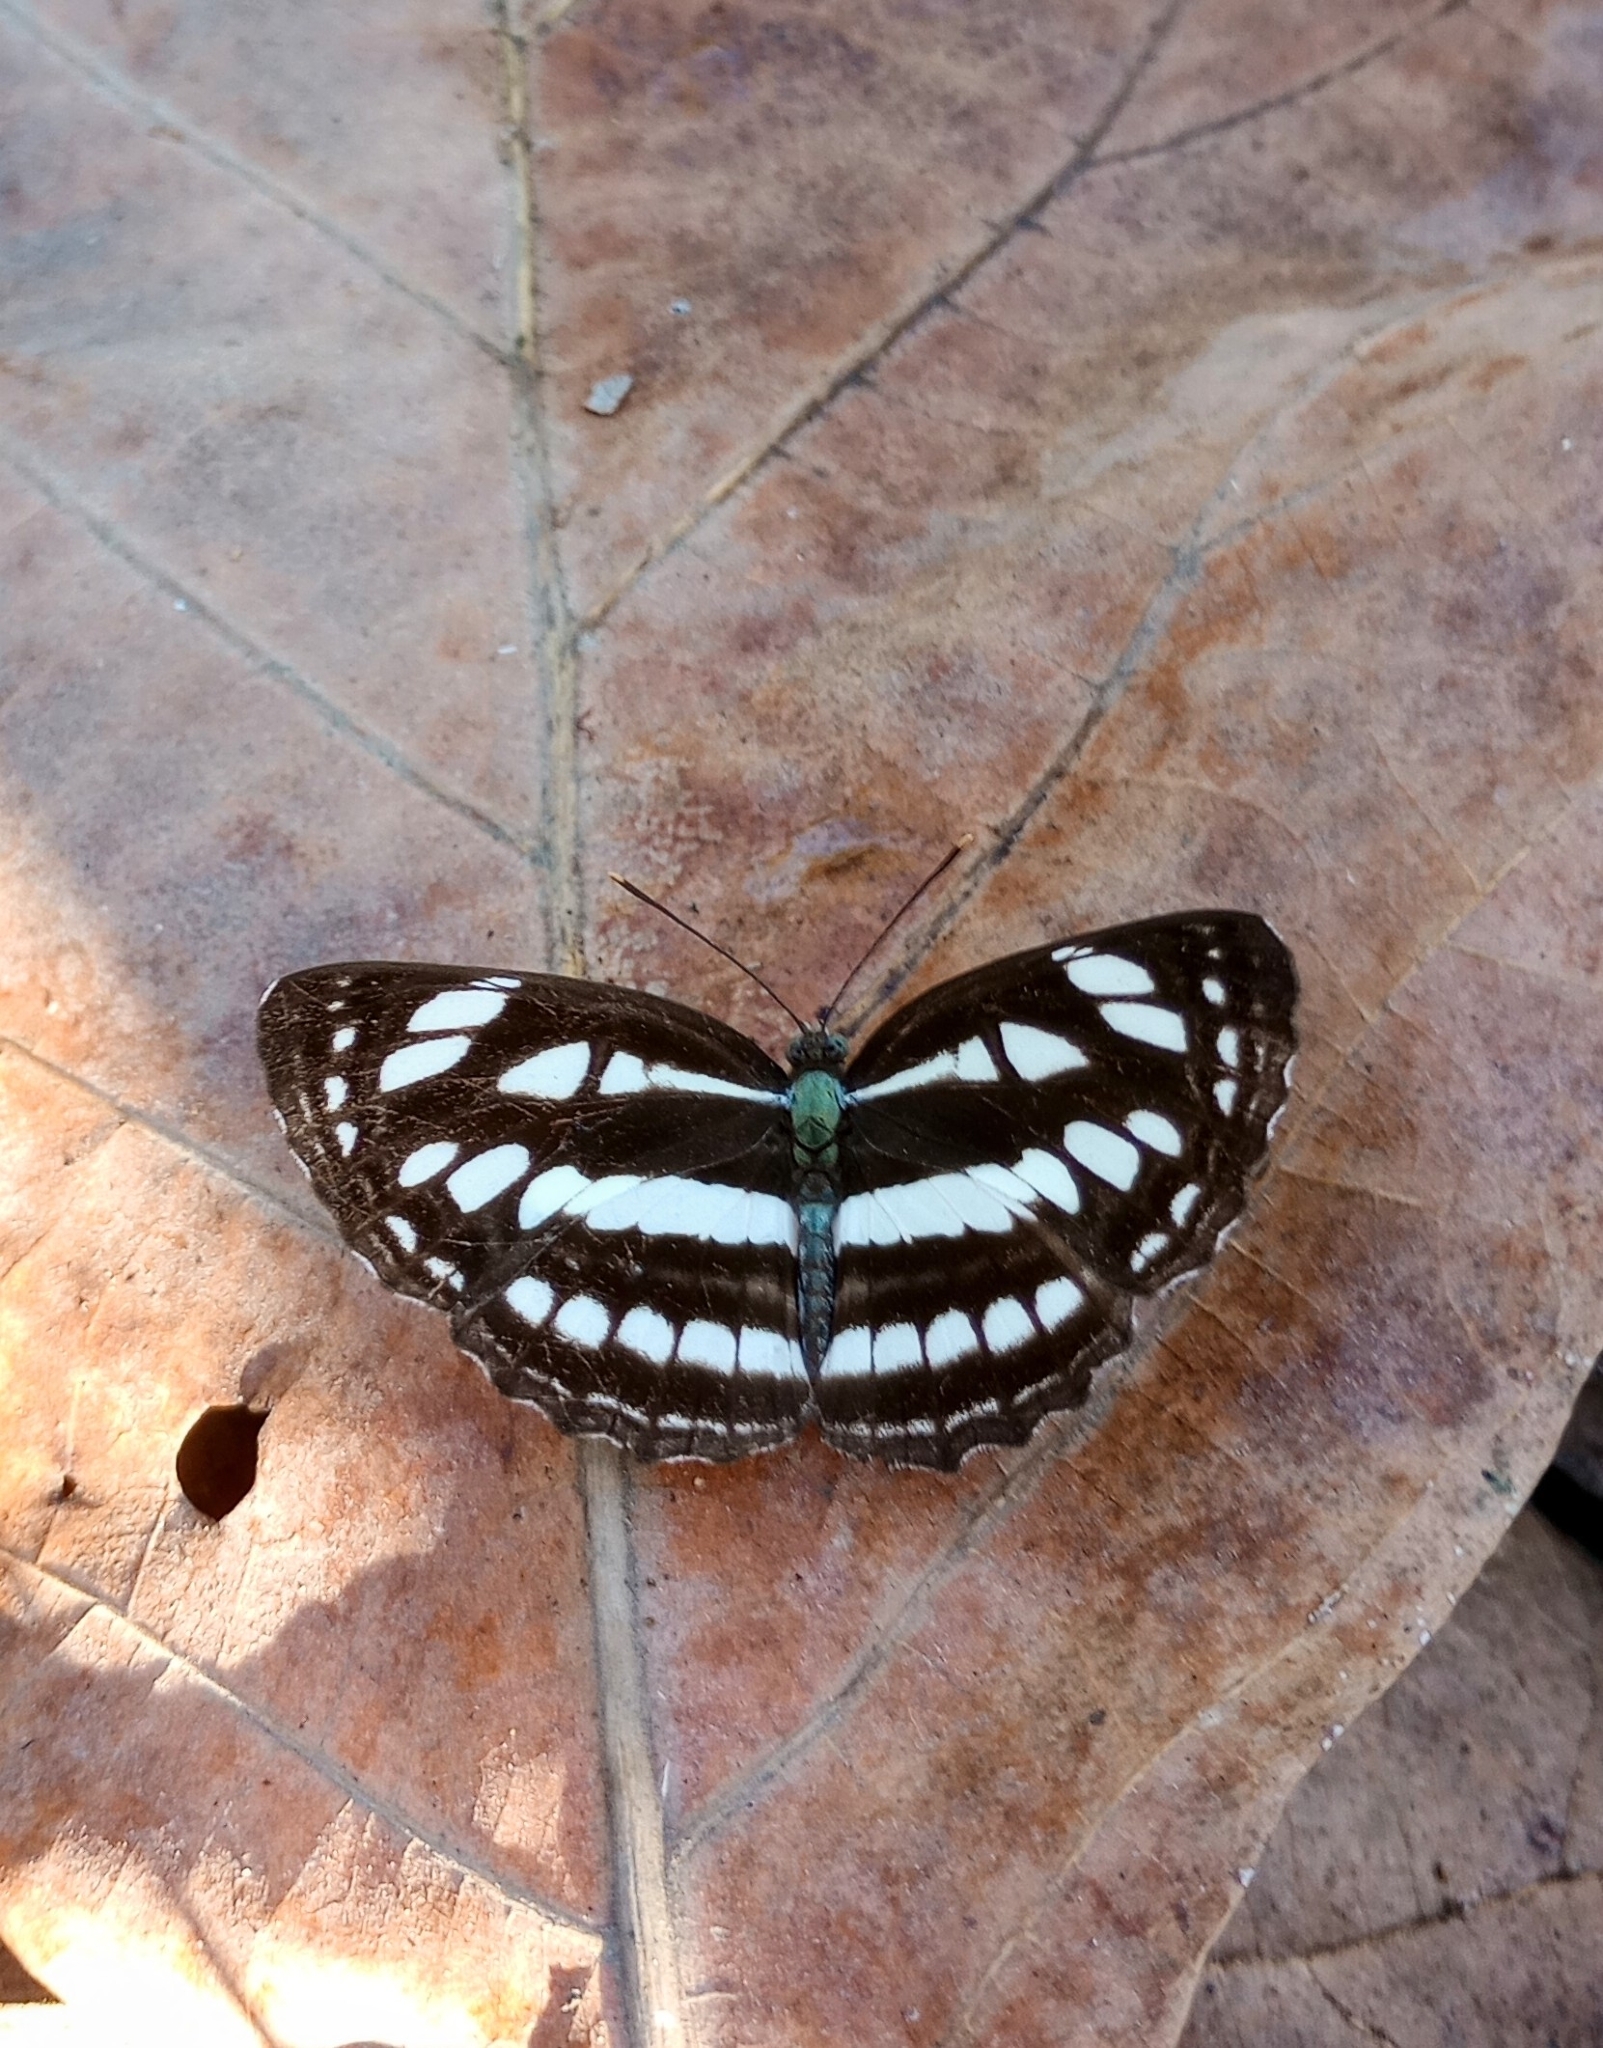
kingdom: Animalia
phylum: Arthropoda
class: Insecta
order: Lepidoptera
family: Nymphalidae
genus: Neptis
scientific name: Neptis hylas
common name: Common sailer
